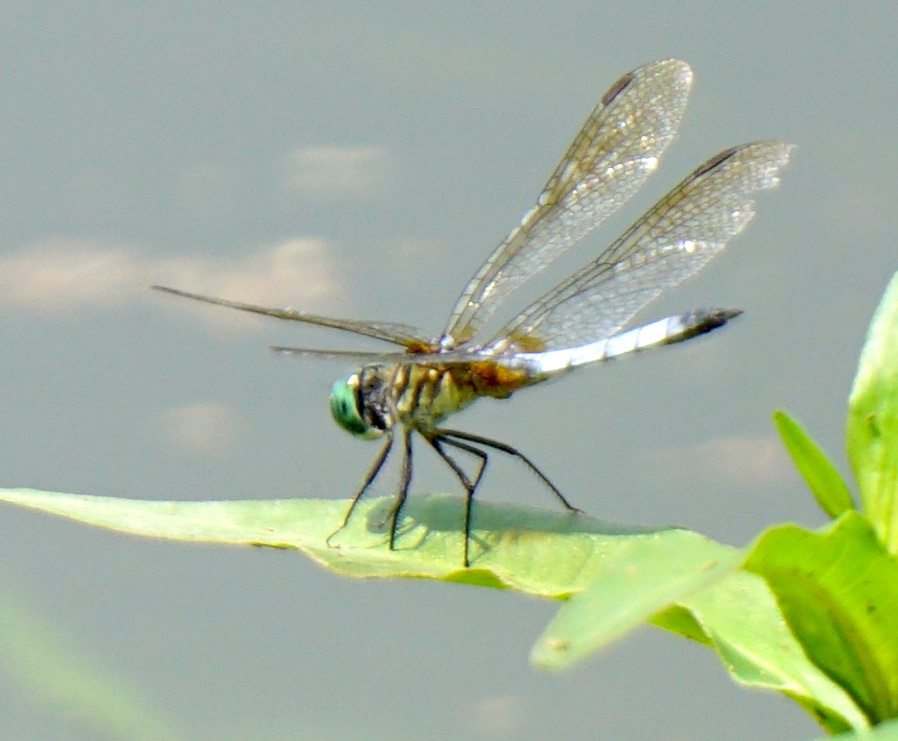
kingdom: Animalia
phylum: Arthropoda
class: Insecta
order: Odonata
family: Libellulidae
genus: Pachydiplax
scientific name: Pachydiplax longipennis
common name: Blue dasher
